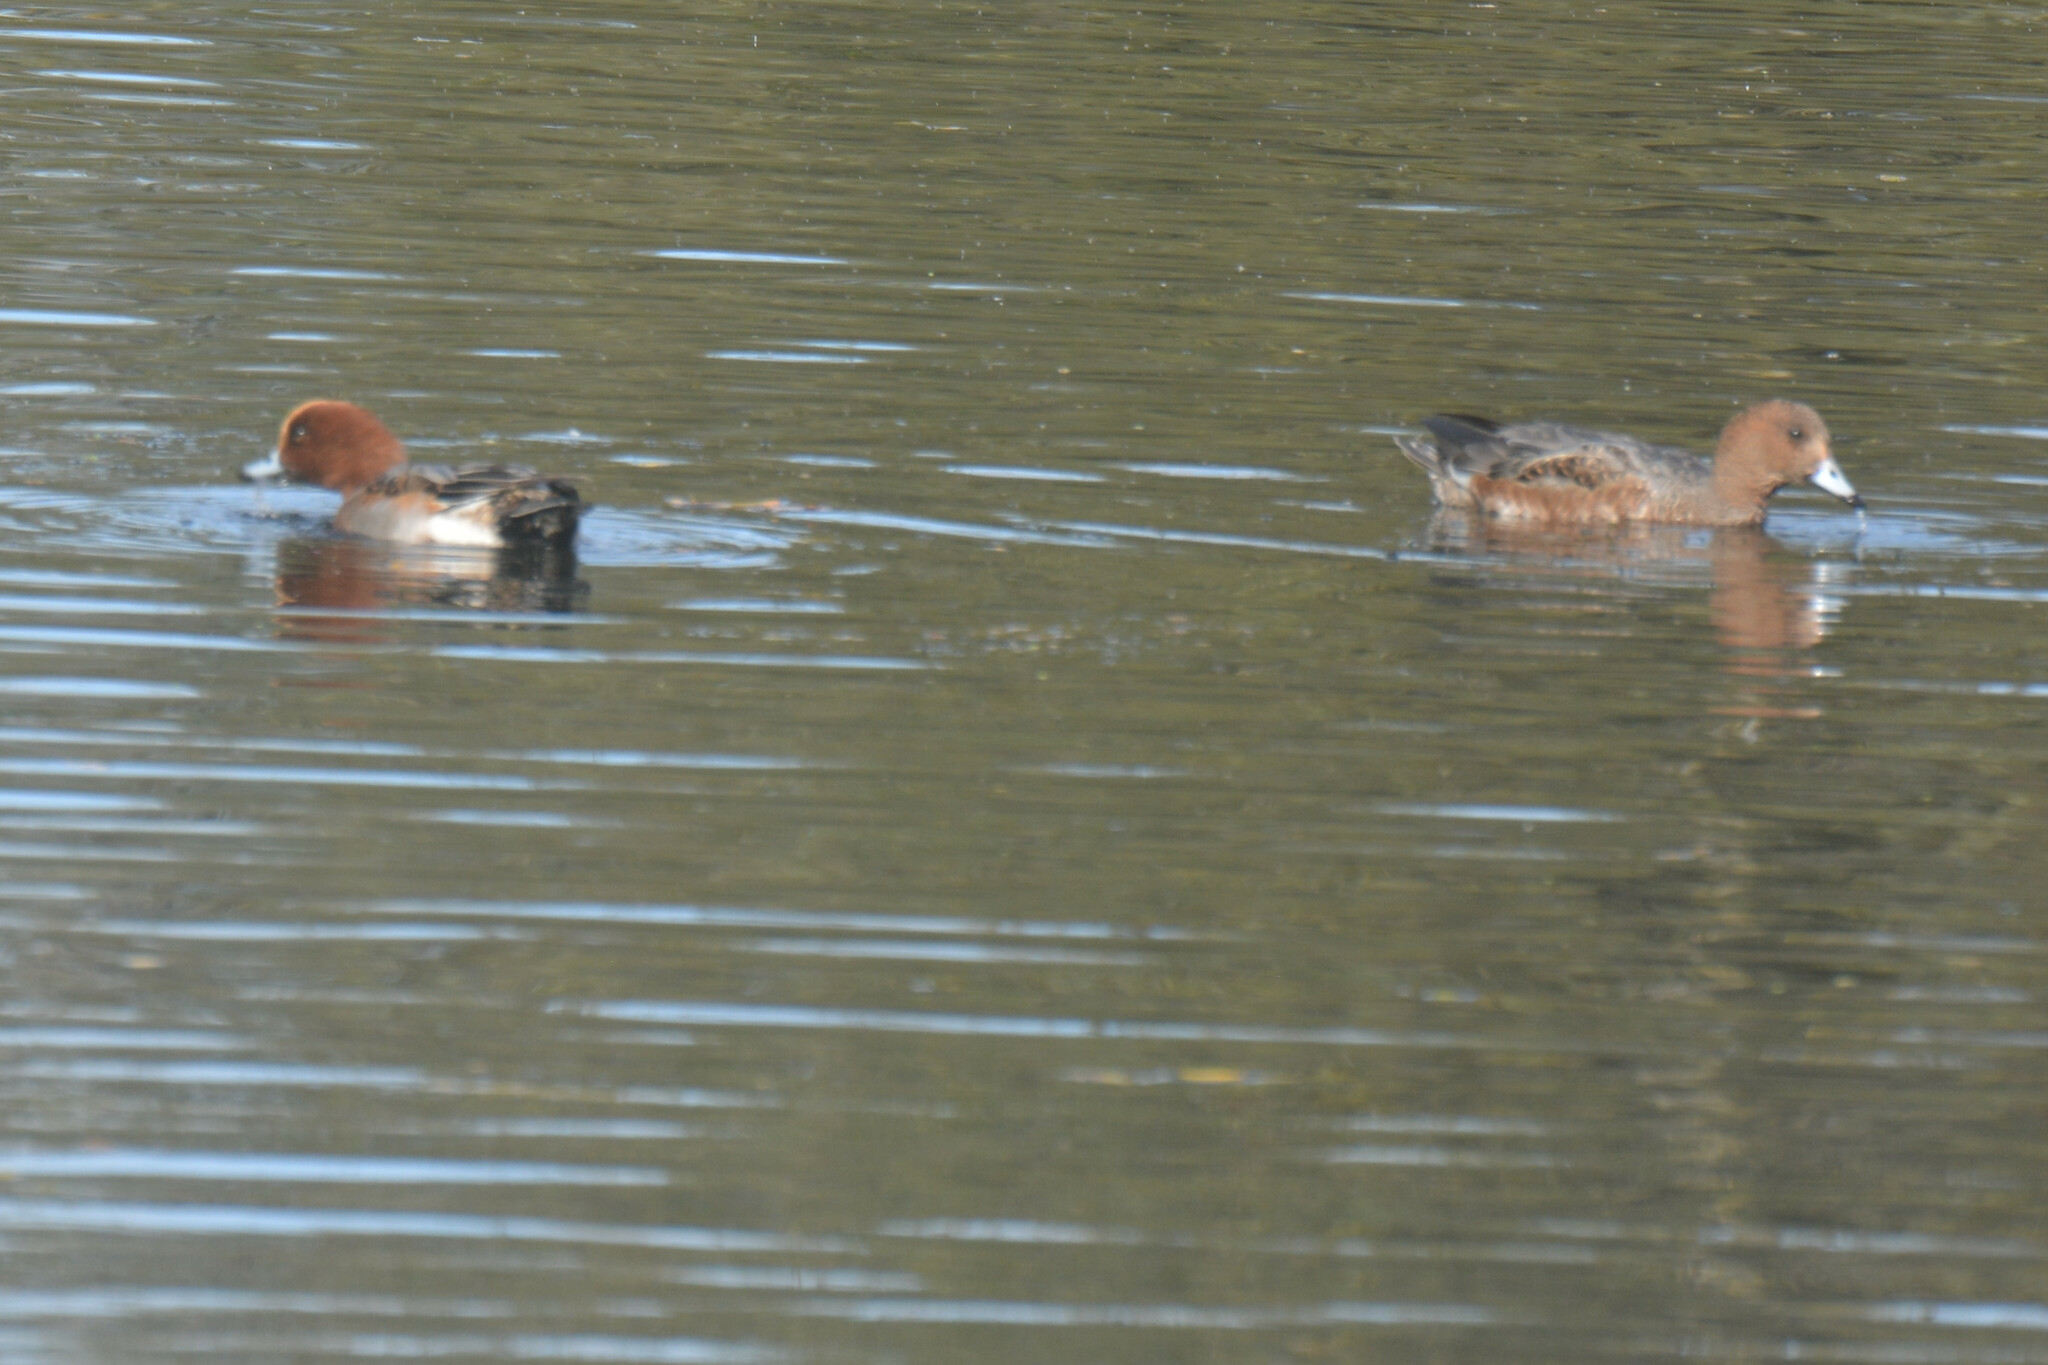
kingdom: Animalia
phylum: Chordata
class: Aves
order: Anseriformes
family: Anatidae
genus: Mareca
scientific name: Mareca penelope
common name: Eurasian wigeon
